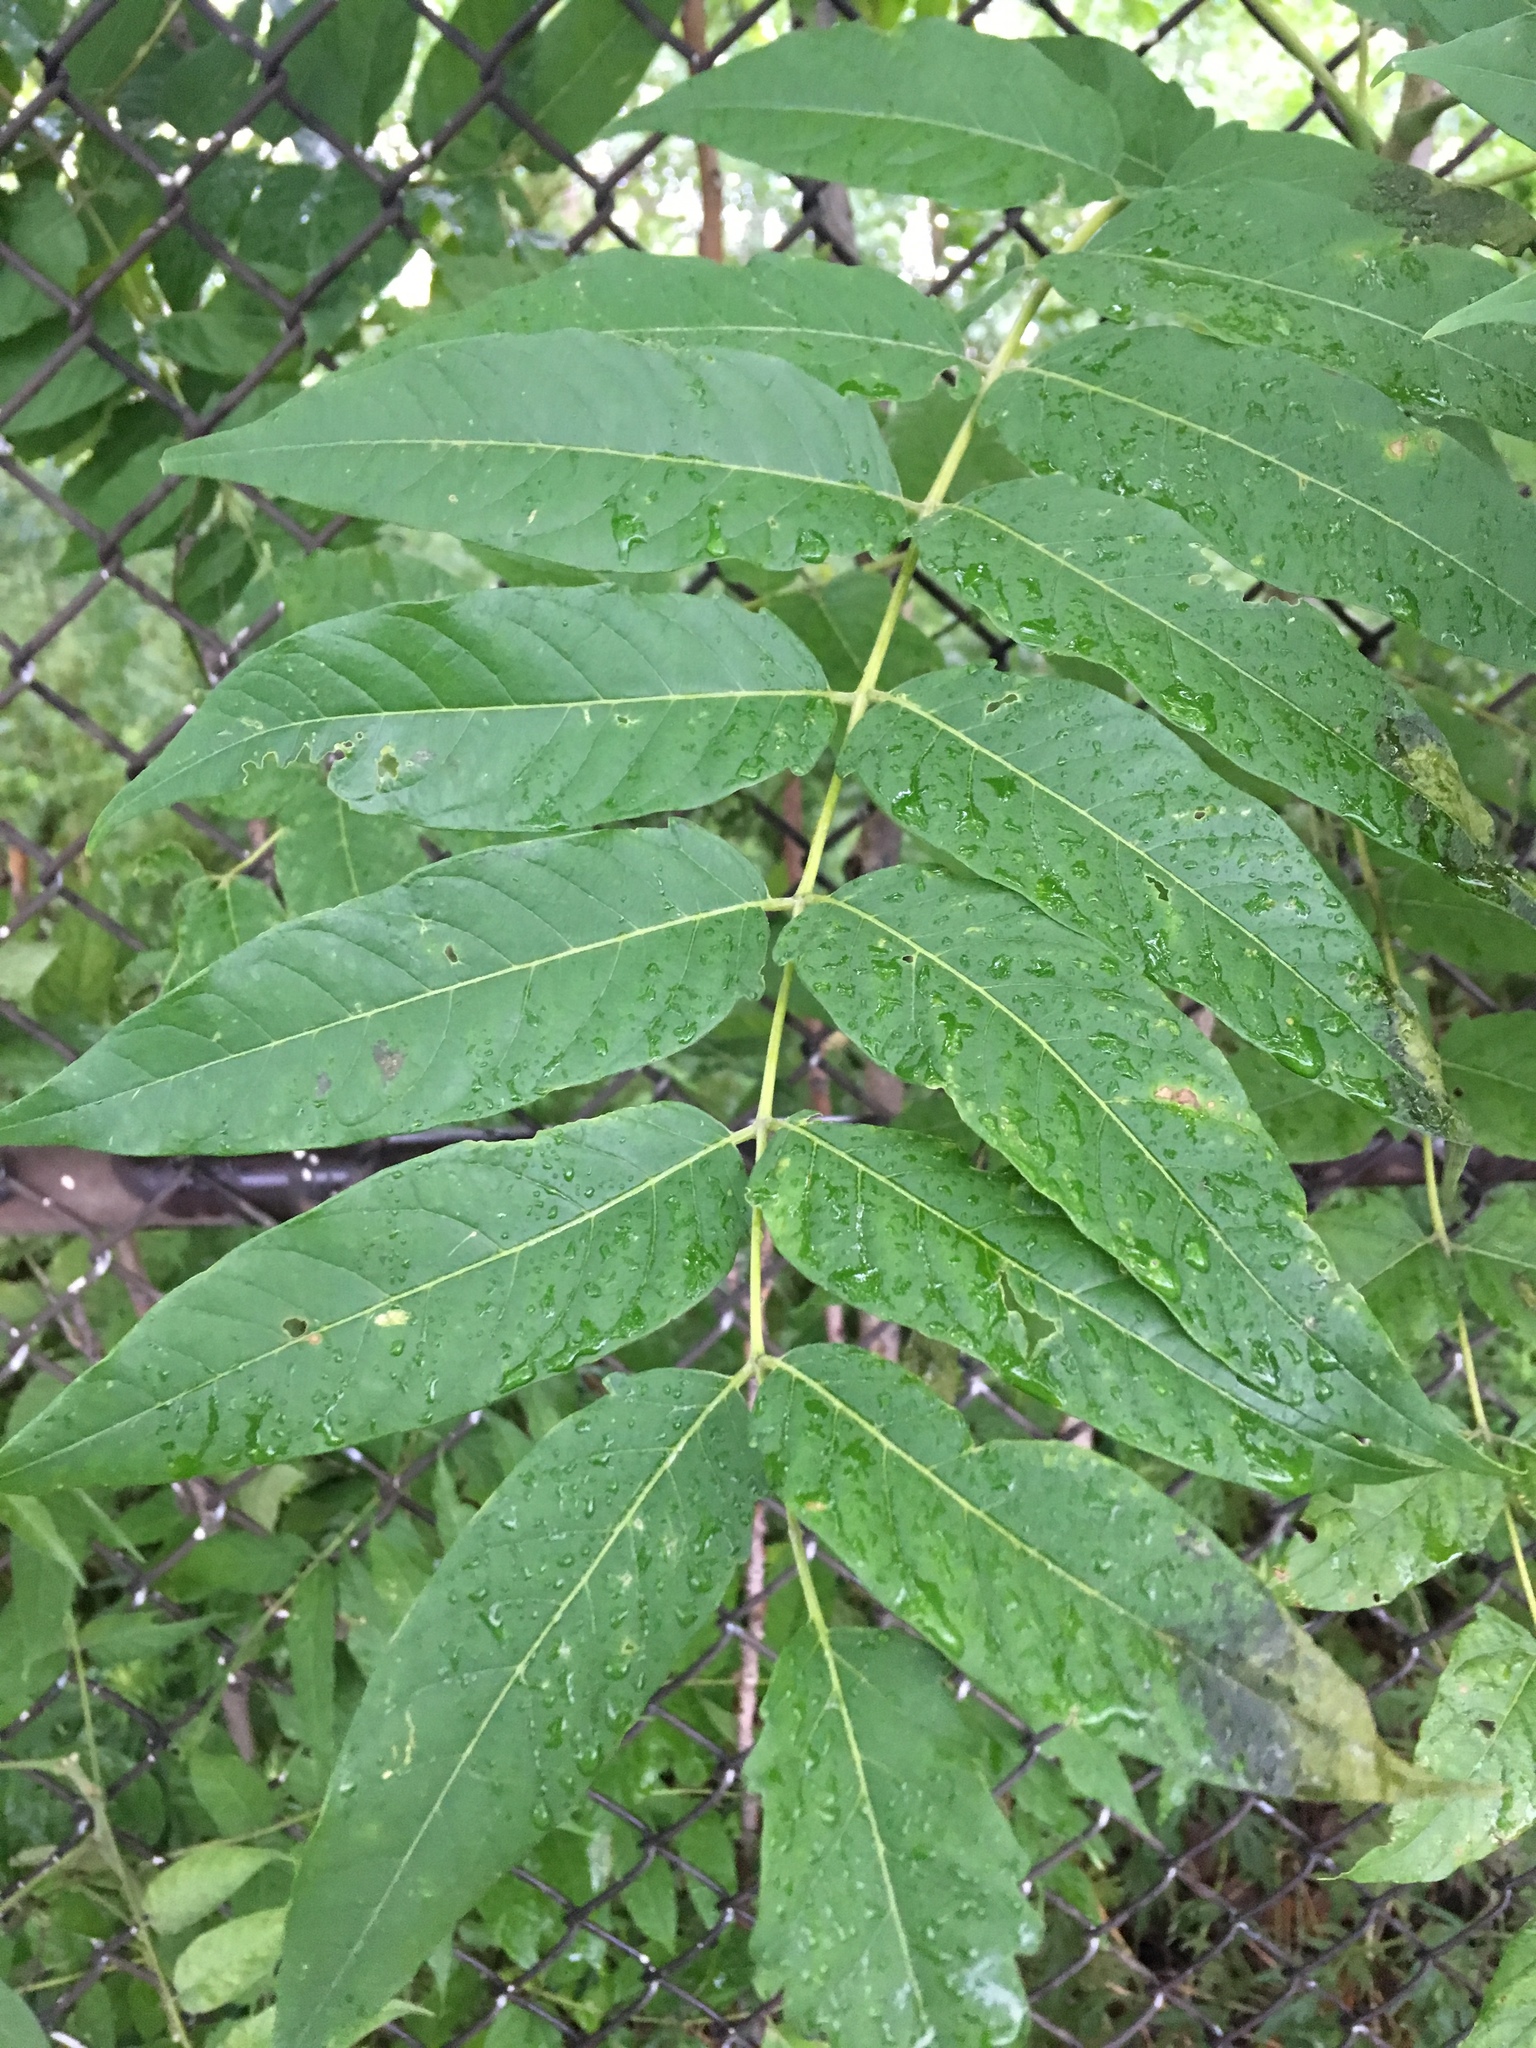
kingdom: Plantae
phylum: Tracheophyta
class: Magnoliopsida
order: Sapindales
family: Simaroubaceae
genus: Ailanthus
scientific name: Ailanthus altissima
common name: Tree-of-heaven
